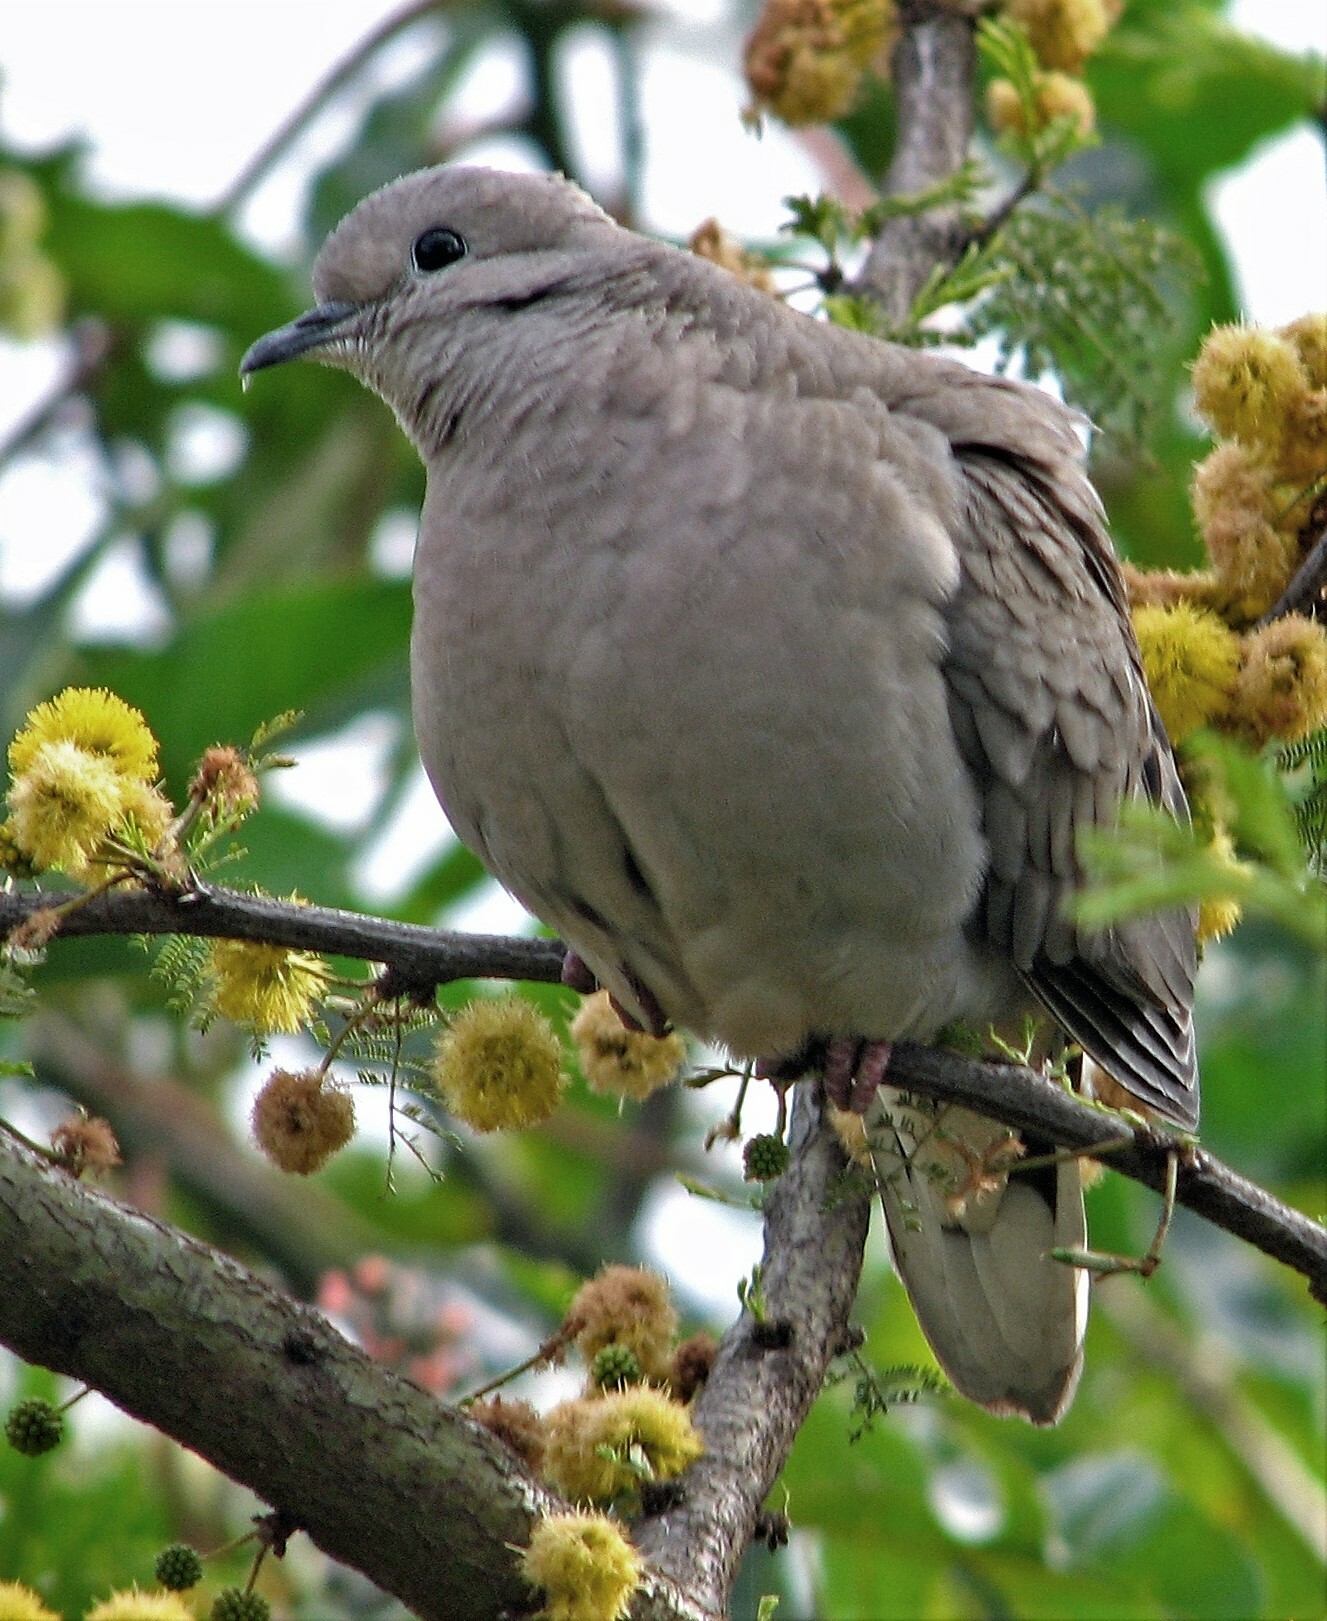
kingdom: Animalia
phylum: Chordata
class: Aves
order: Columbiformes
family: Columbidae
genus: Zenaida
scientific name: Zenaida auriculata
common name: Eared dove
